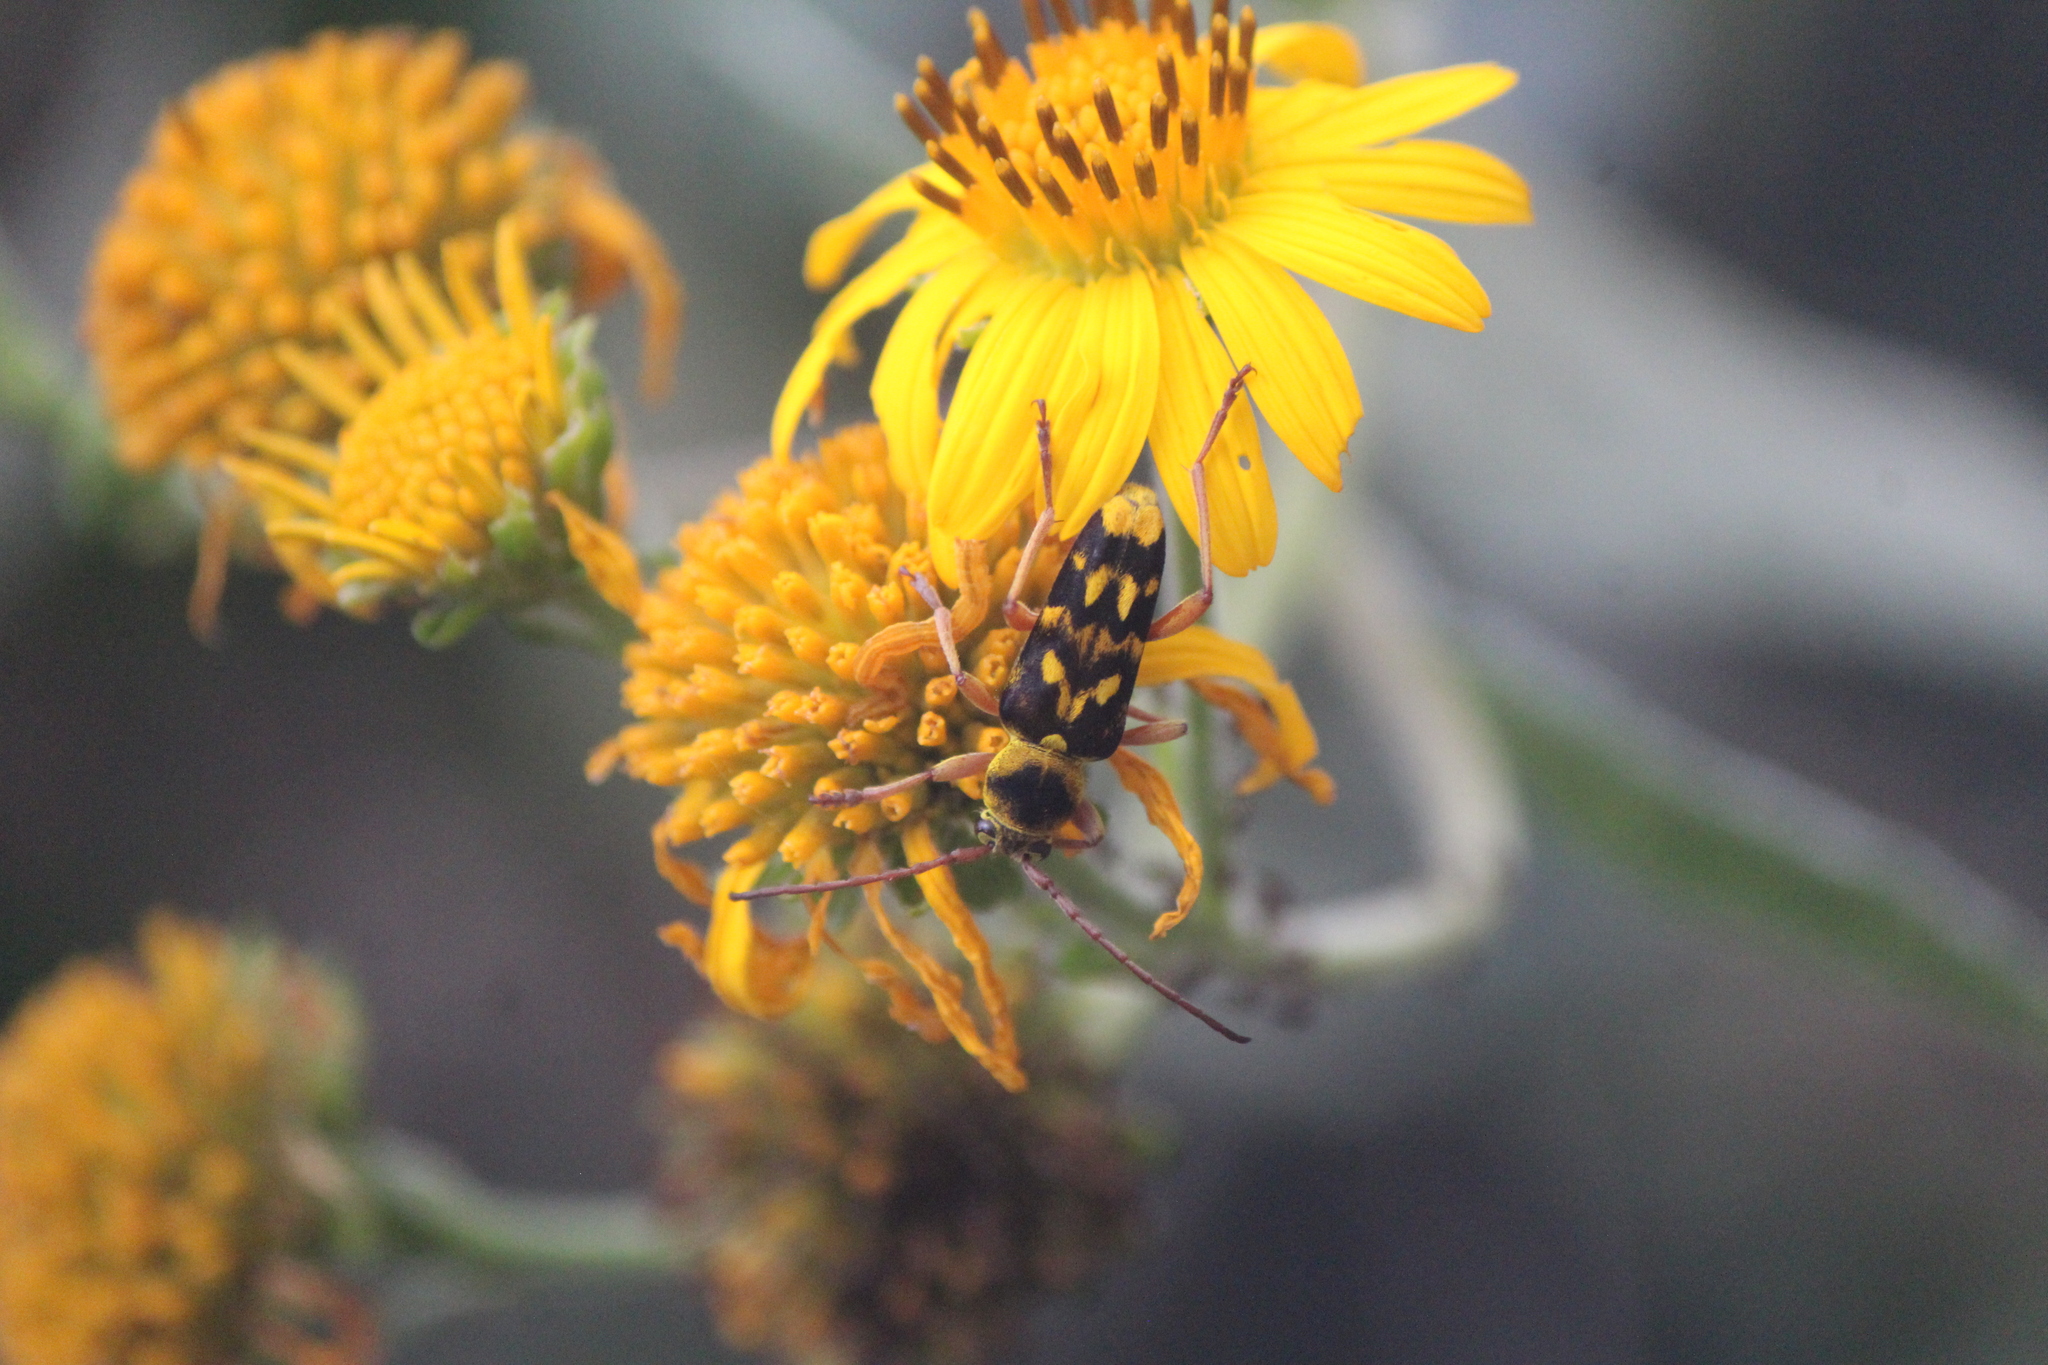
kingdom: Animalia
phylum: Arthropoda
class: Insecta
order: Coleoptera
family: Cerambycidae
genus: Ochraethes
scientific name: Ochraethes sommeri
